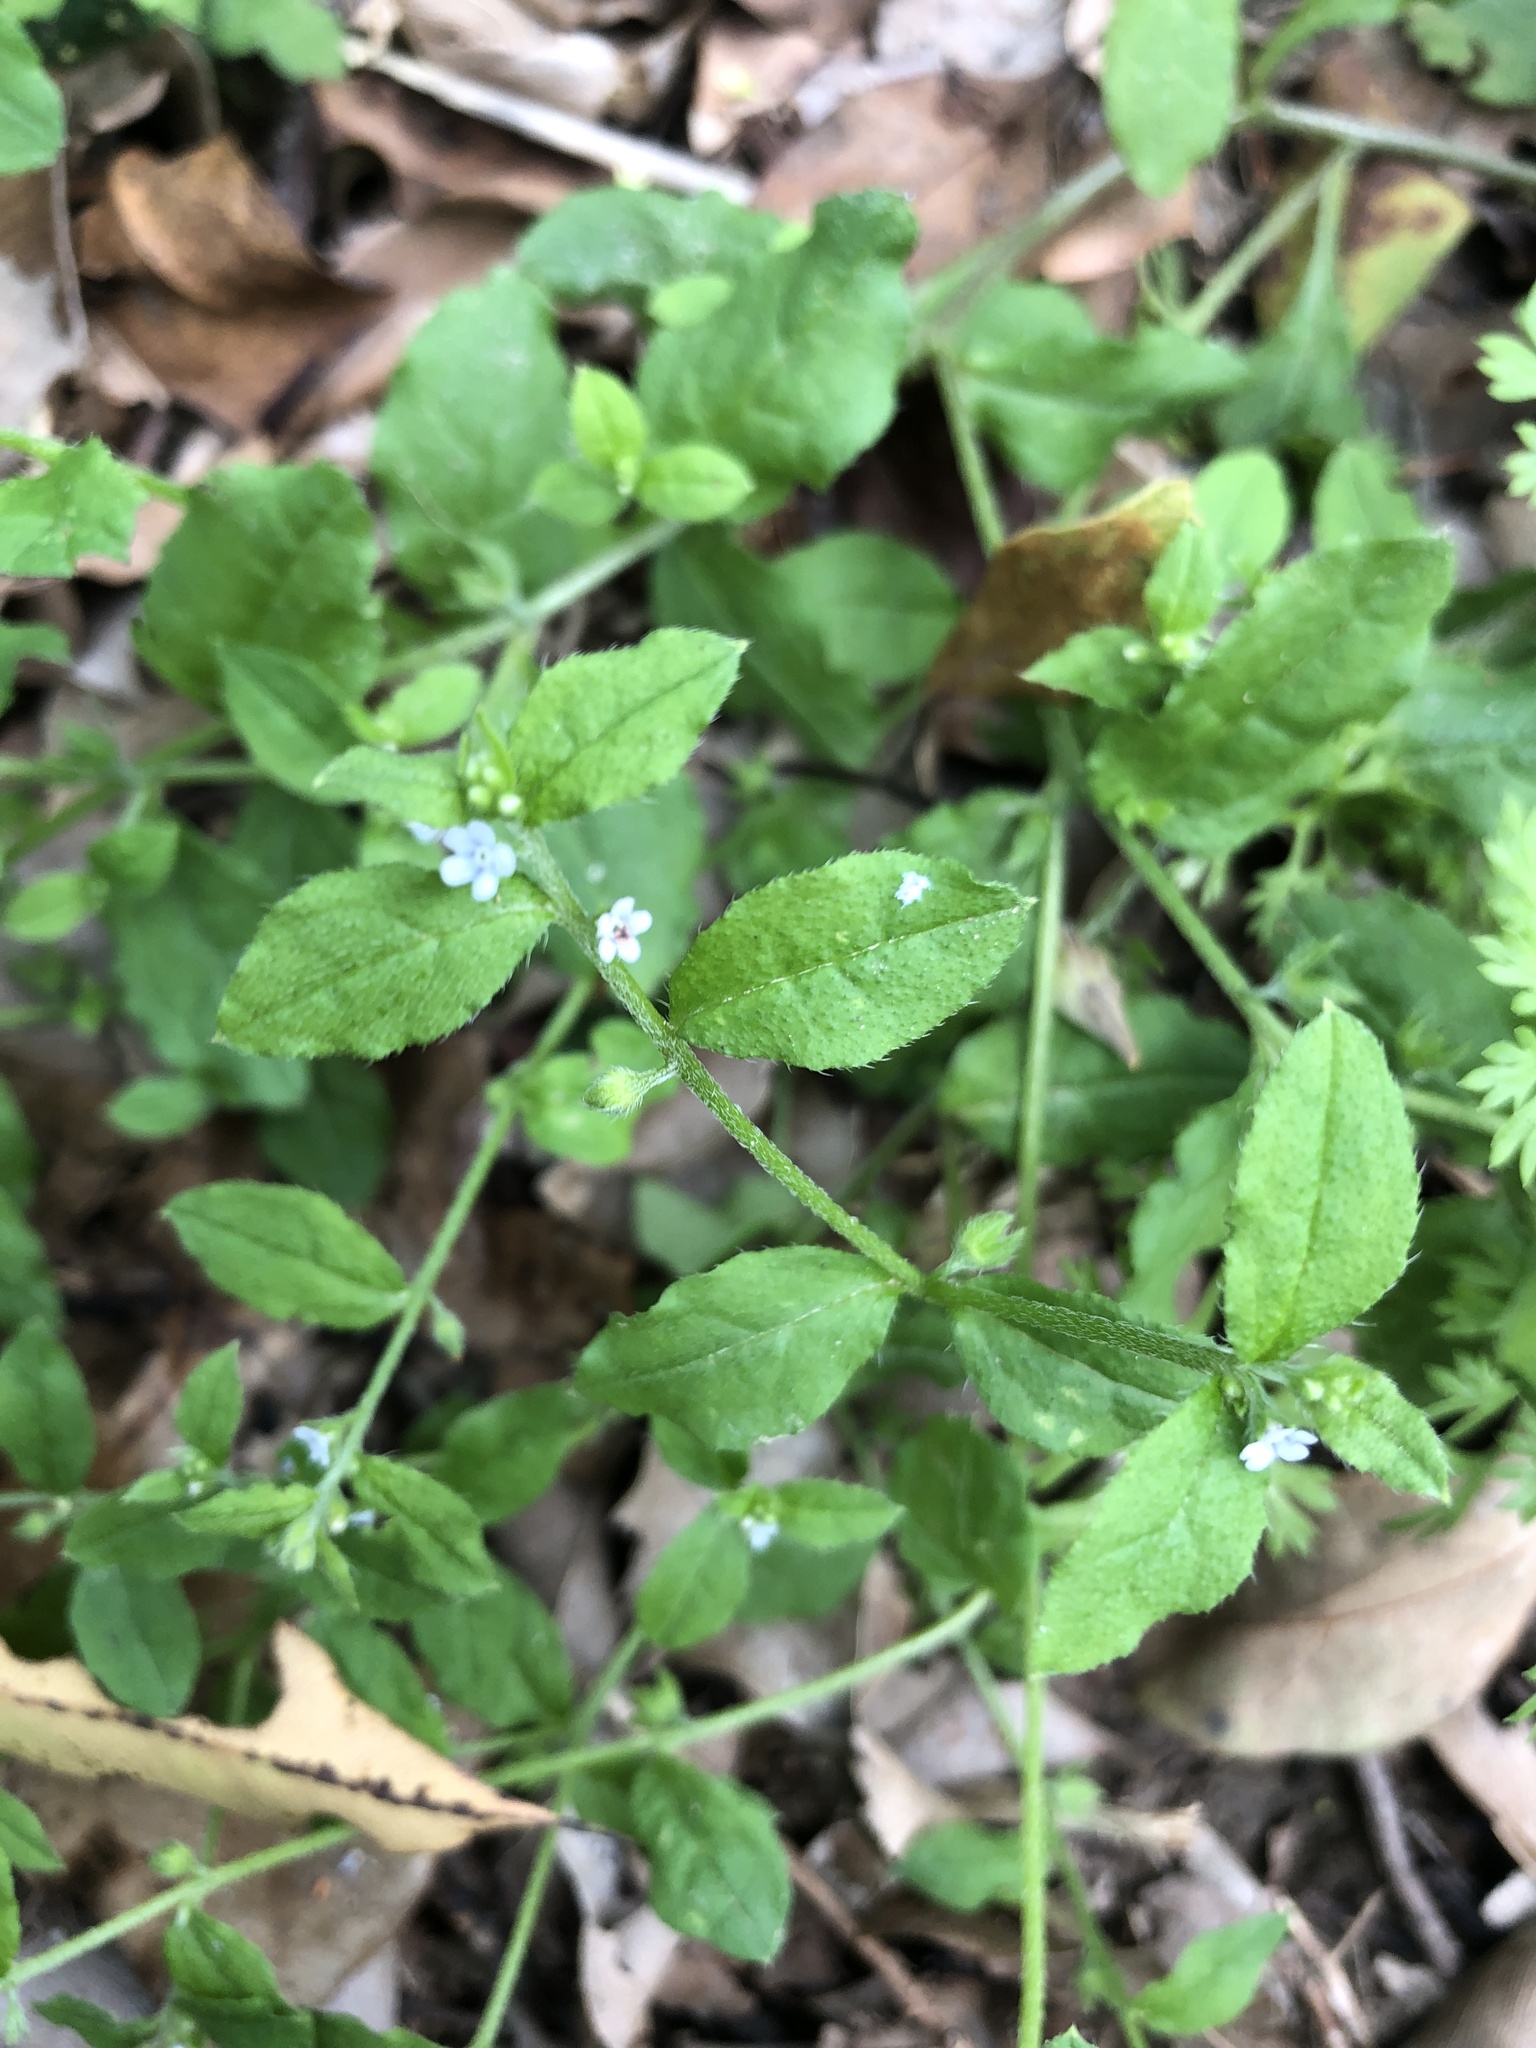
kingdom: Plantae
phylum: Tracheophyta
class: Magnoliopsida
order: Boraginales
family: Boraginaceae
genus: Bothriospermum
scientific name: Bothriospermum zeylanicum
